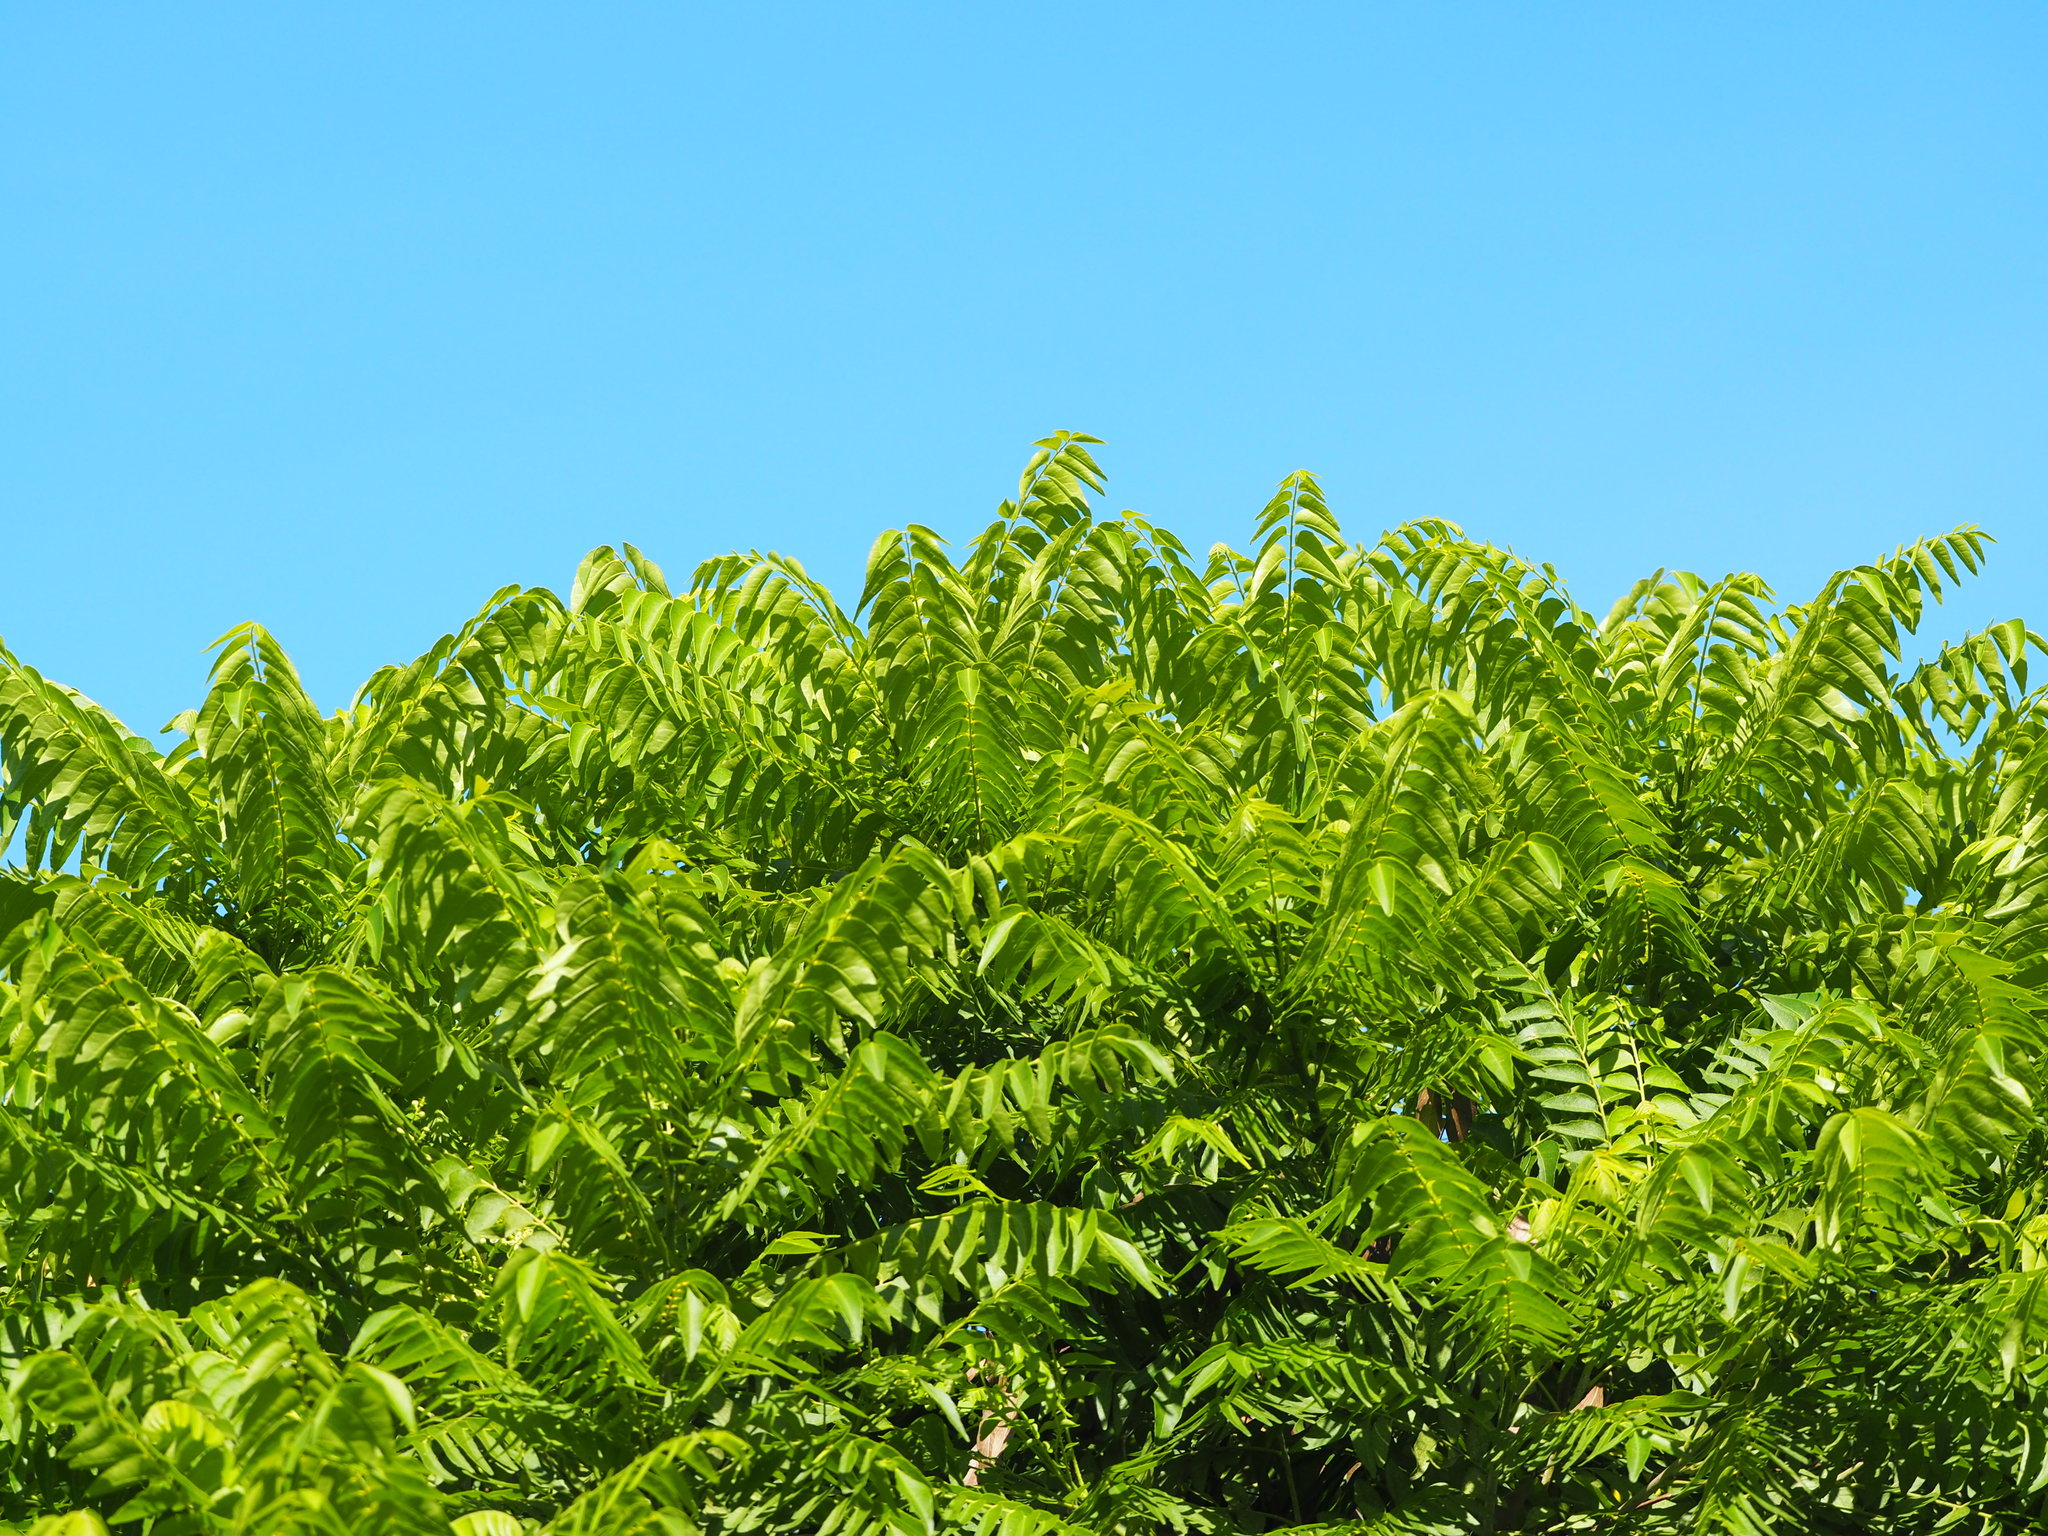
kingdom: Plantae
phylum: Tracheophyta
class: Magnoliopsida
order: Sapindales
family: Rutaceae
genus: Clausena
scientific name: Clausena excavata
